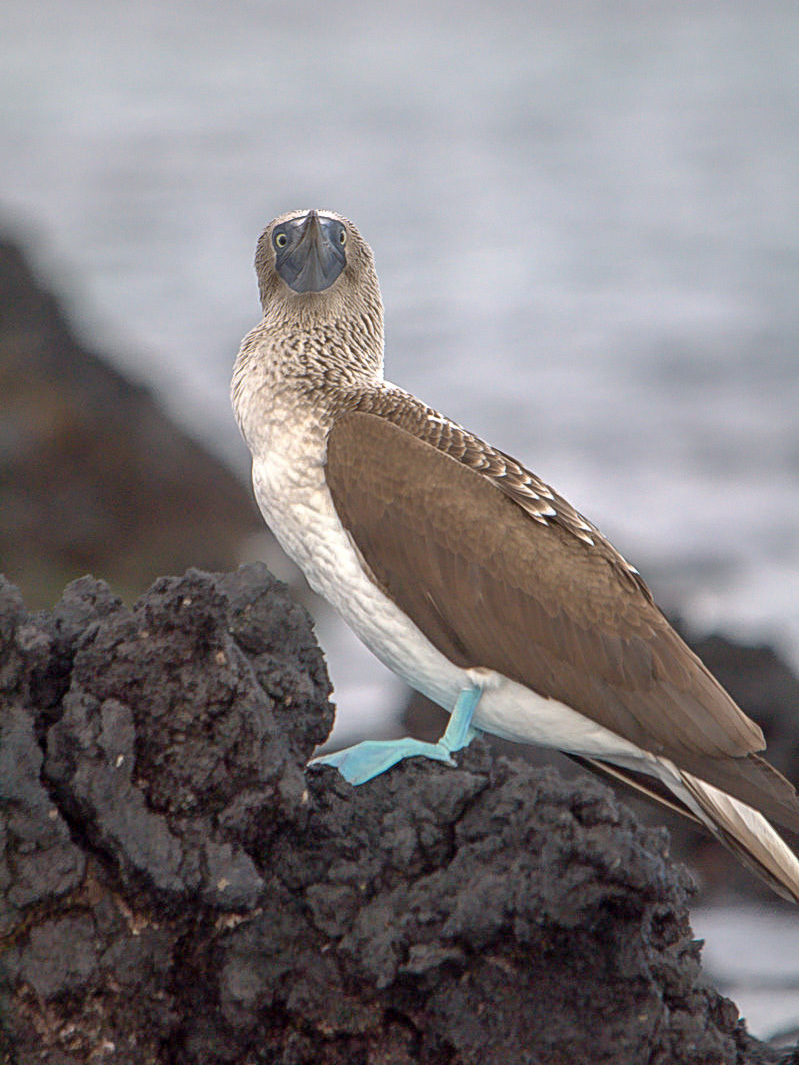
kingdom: Animalia
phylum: Chordata
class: Aves
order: Suliformes
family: Sulidae
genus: Sula
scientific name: Sula nebouxii
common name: Blue-footed booby
